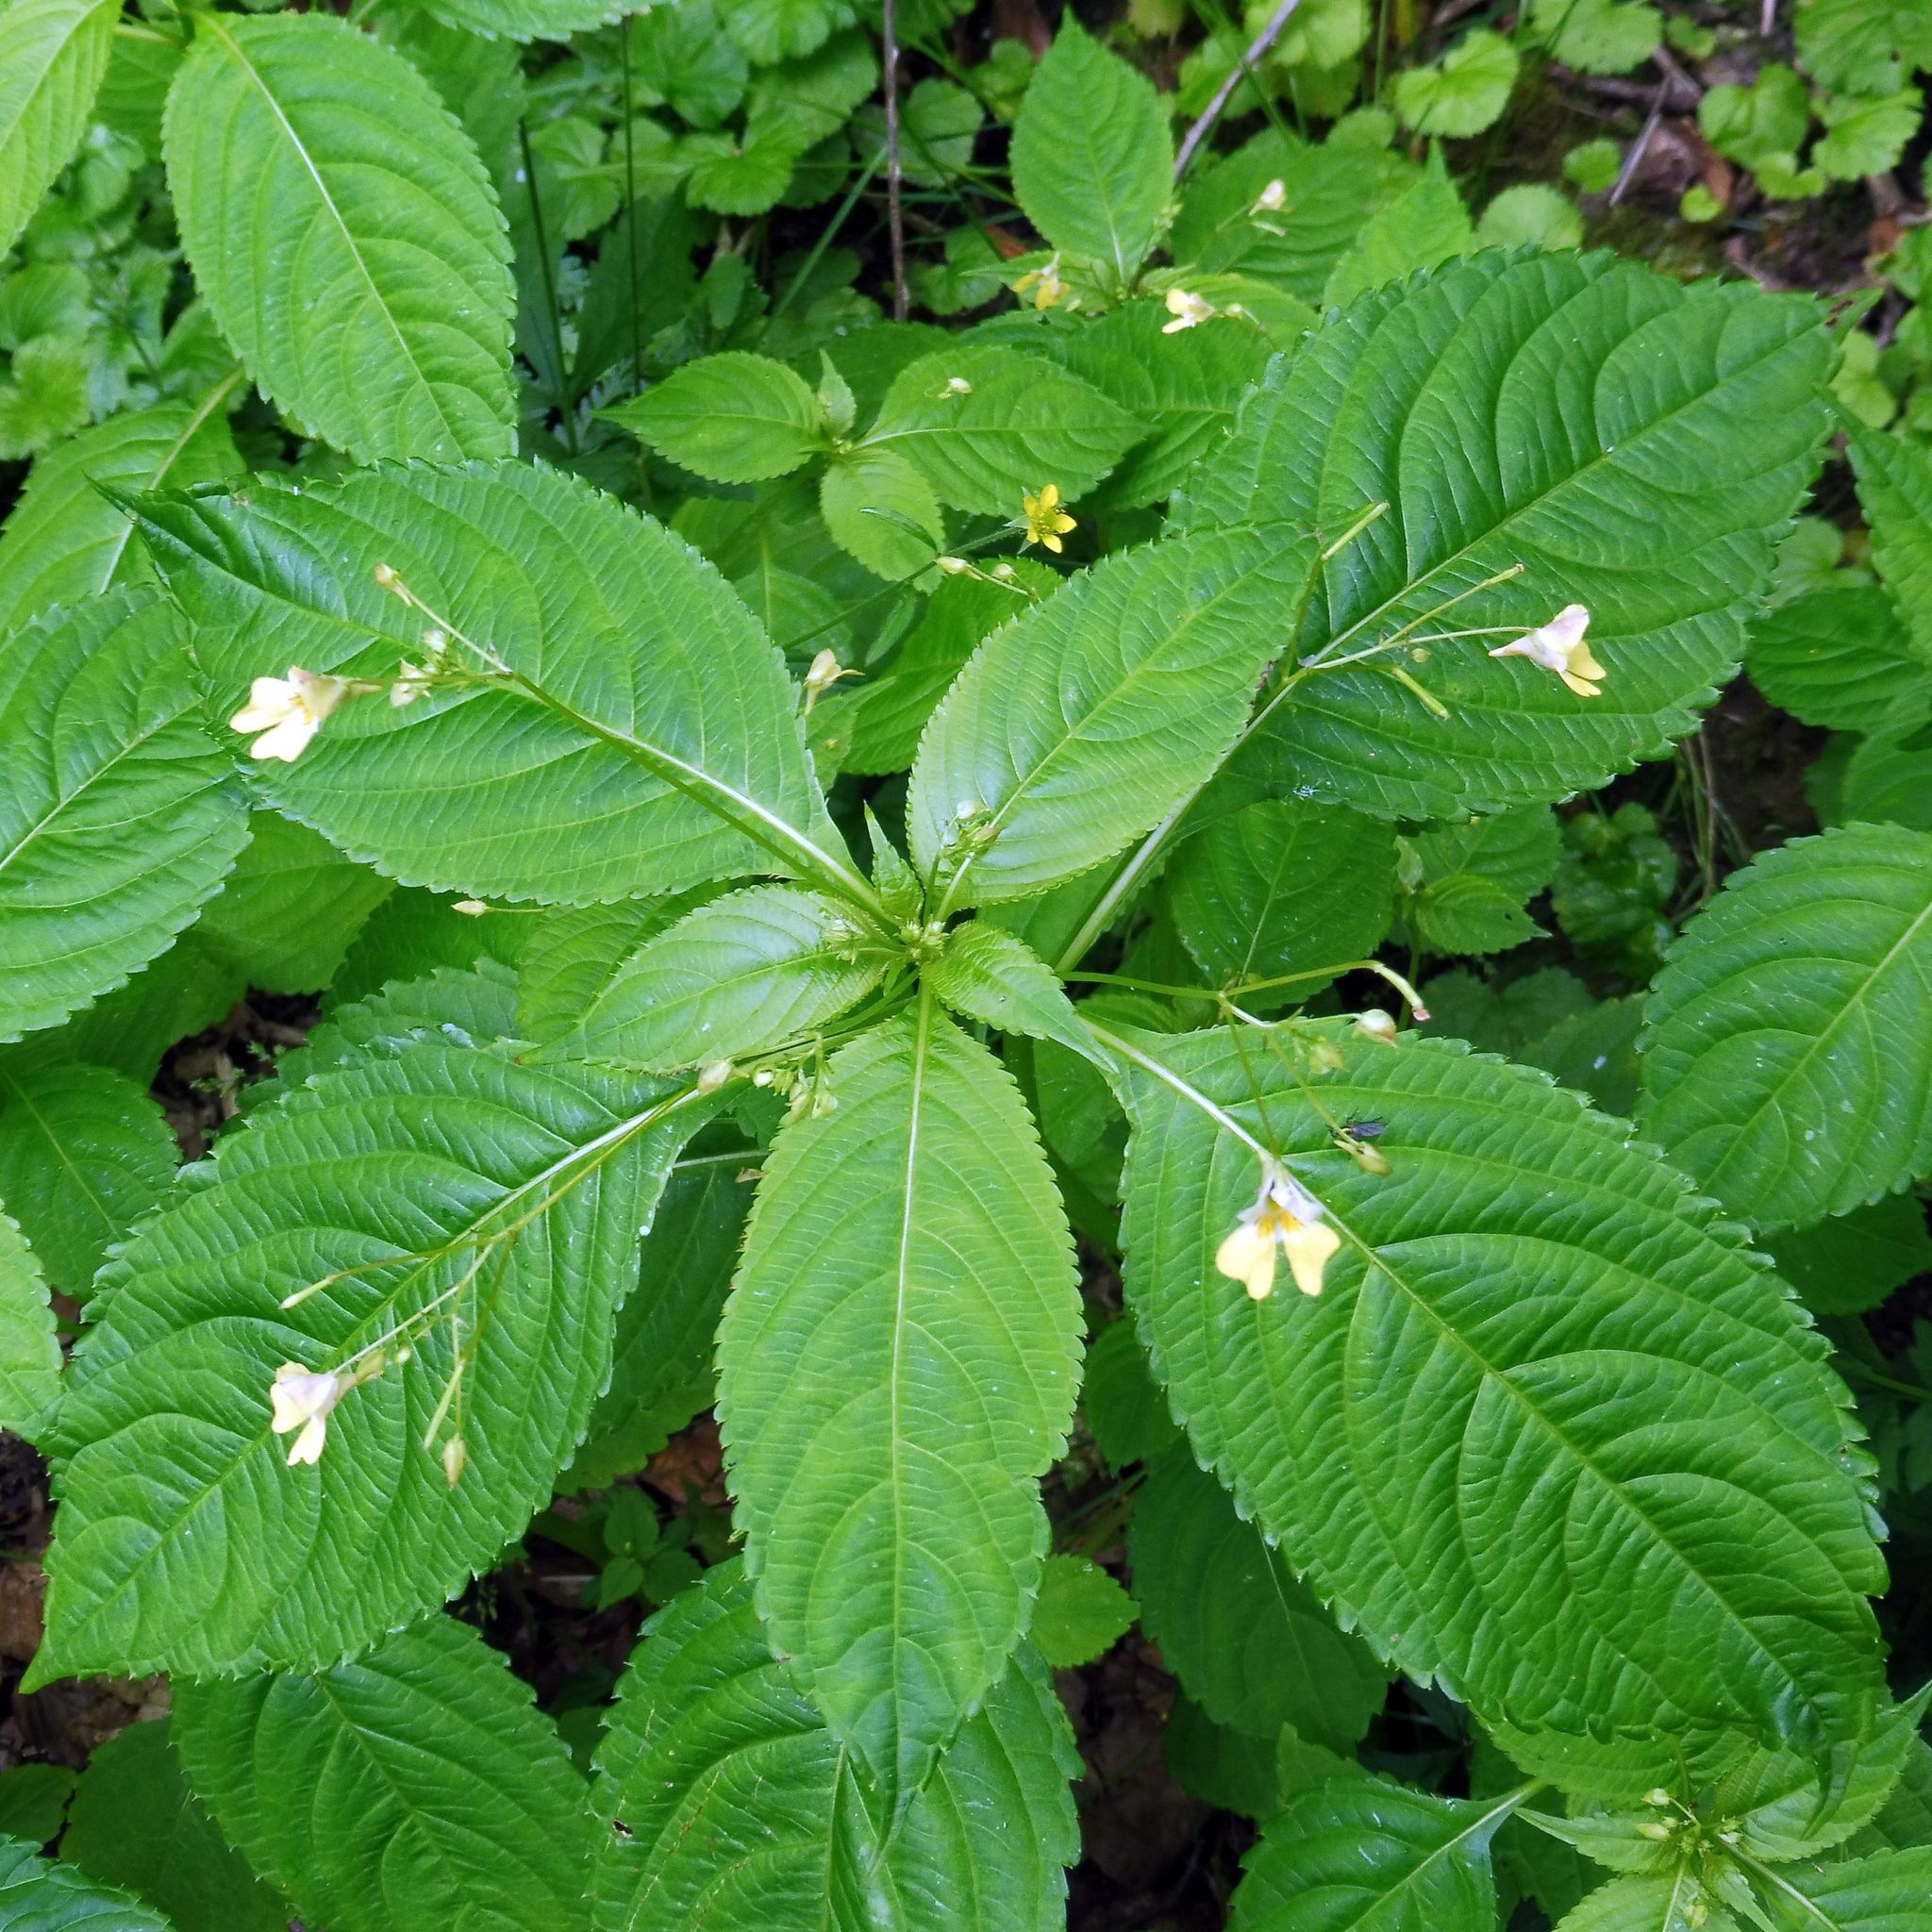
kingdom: Plantae
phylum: Tracheophyta
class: Magnoliopsida
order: Ericales
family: Balsaminaceae
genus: Impatiens
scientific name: Impatiens parviflora
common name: Small balsam
